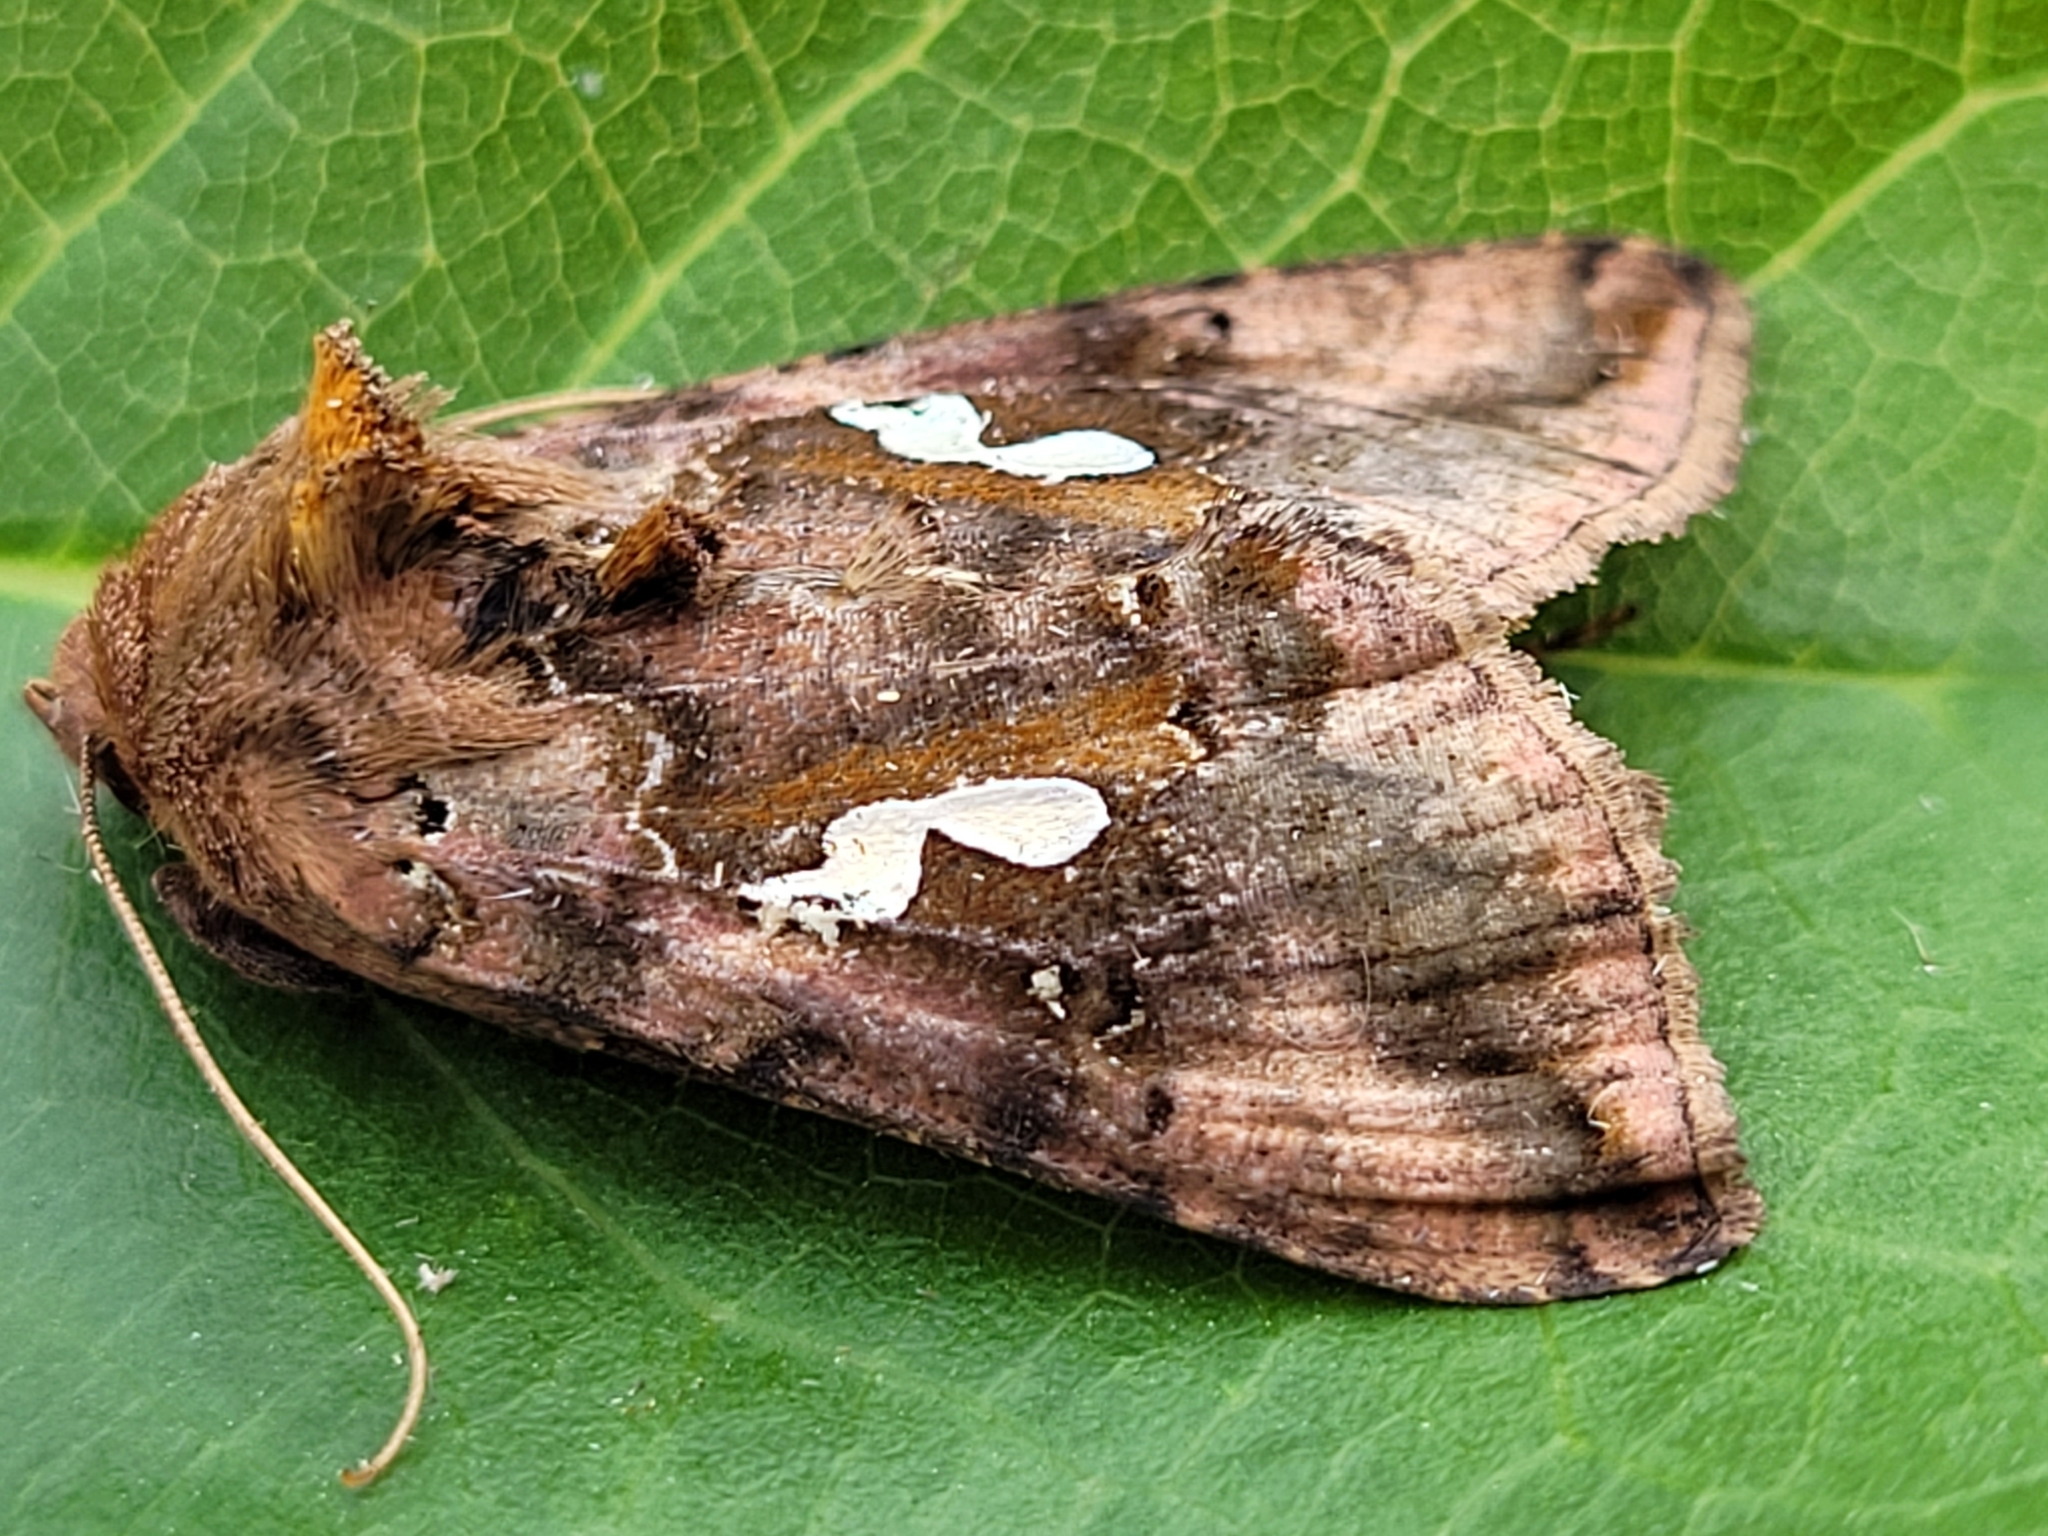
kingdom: Animalia
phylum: Arthropoda
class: Insecta
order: Lepidoptera
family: Noctuidae
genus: Autographa
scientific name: Autographa bimaculata
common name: Double-spotted spangle
